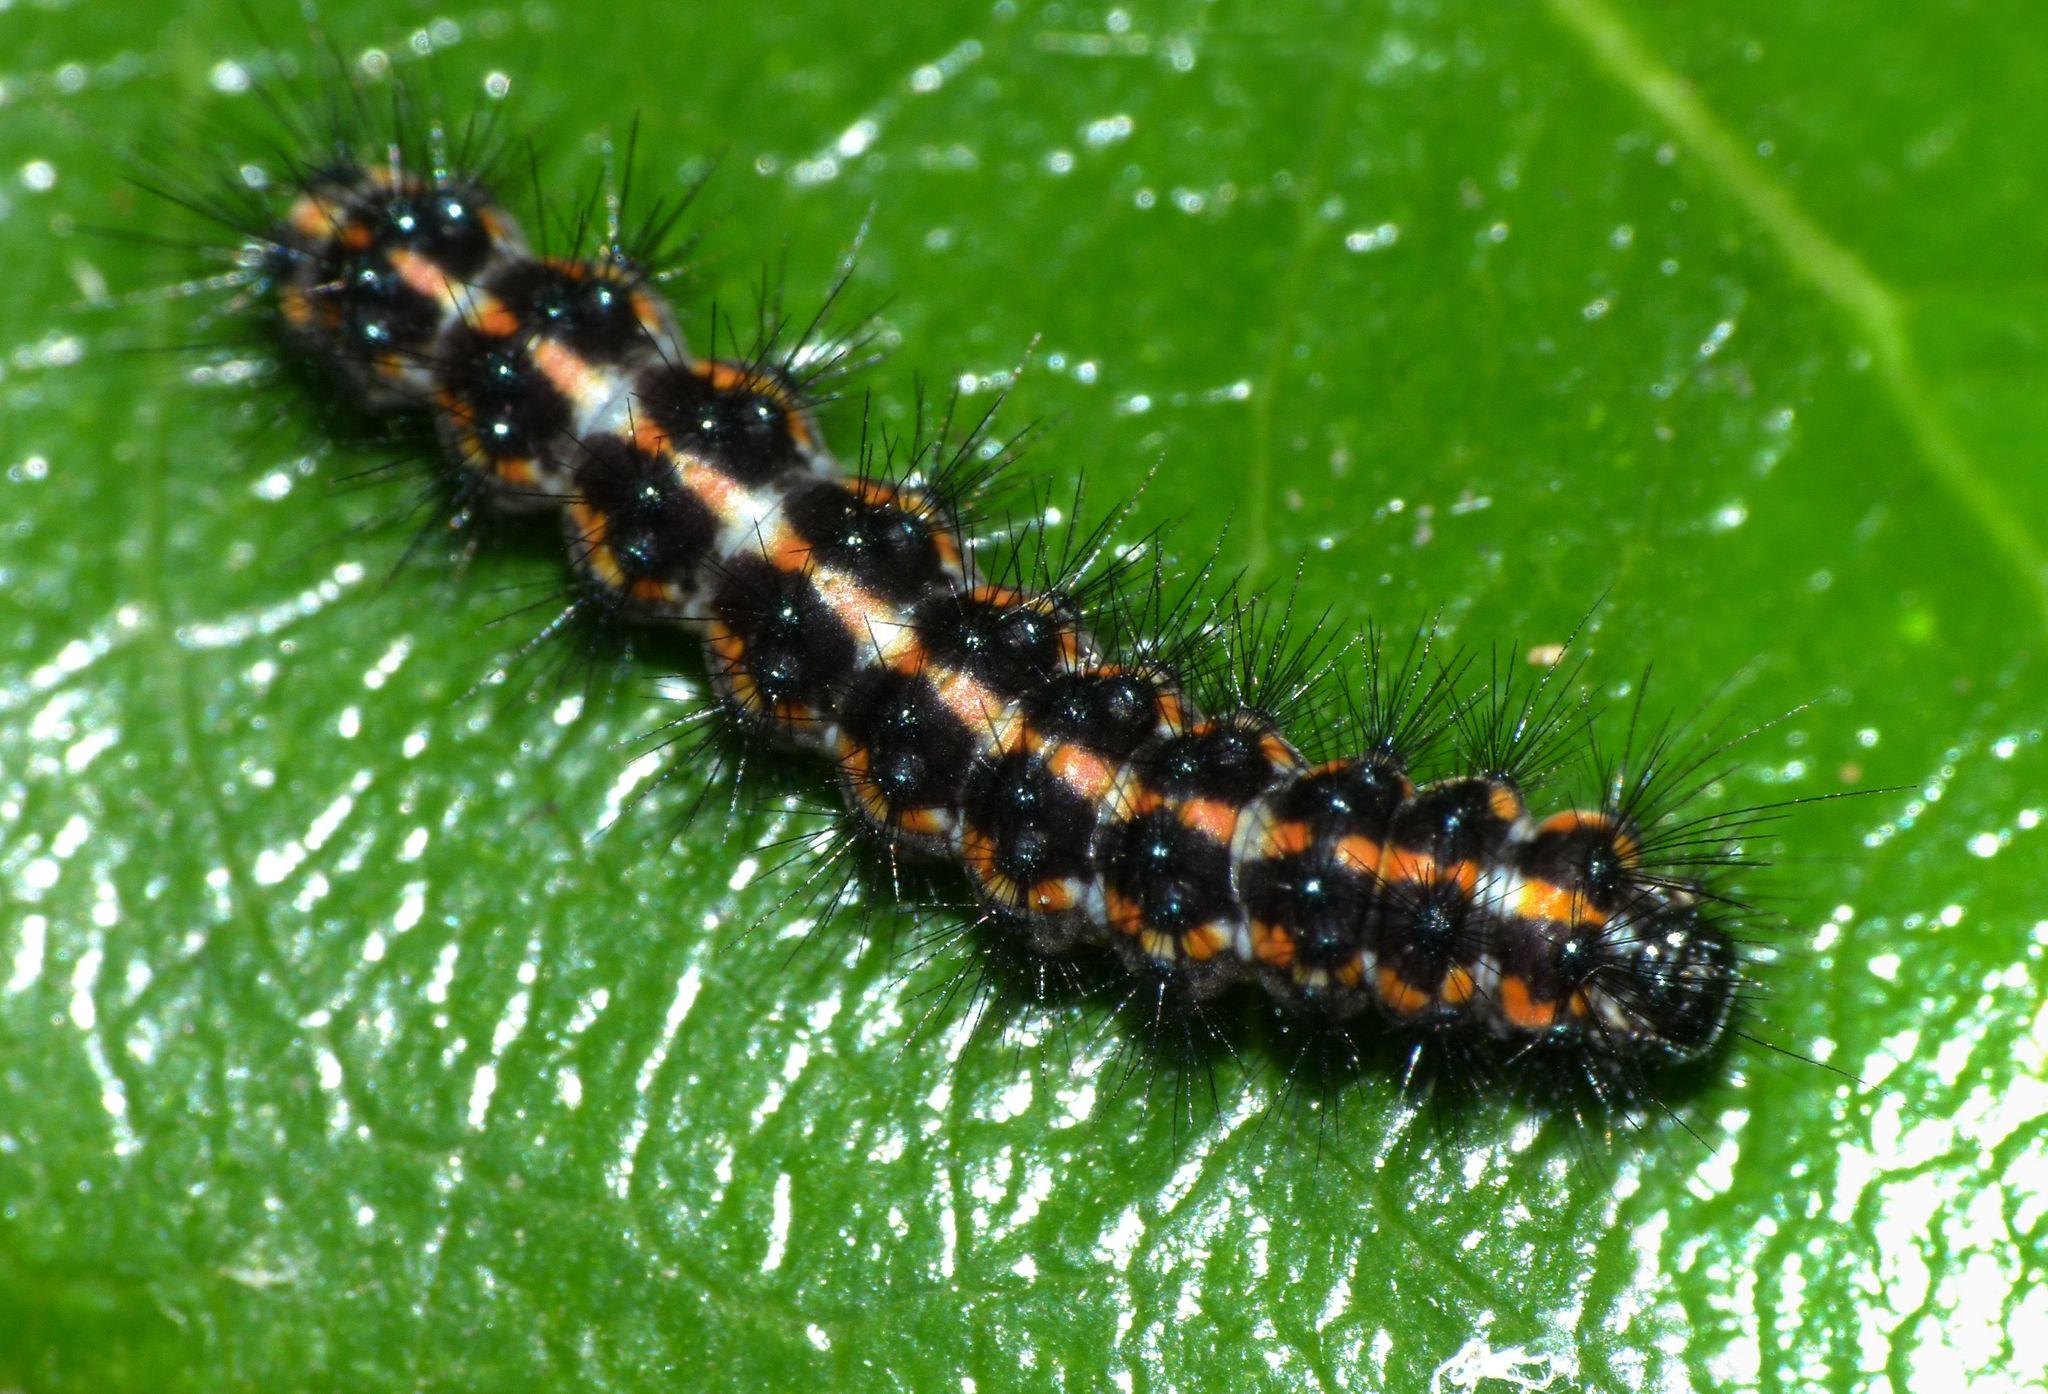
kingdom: Animalia
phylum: Arthropoda
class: Insecta
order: Lepidoptera
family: Erebidae
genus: Nyctemera
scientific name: Nyctemera annulatum
